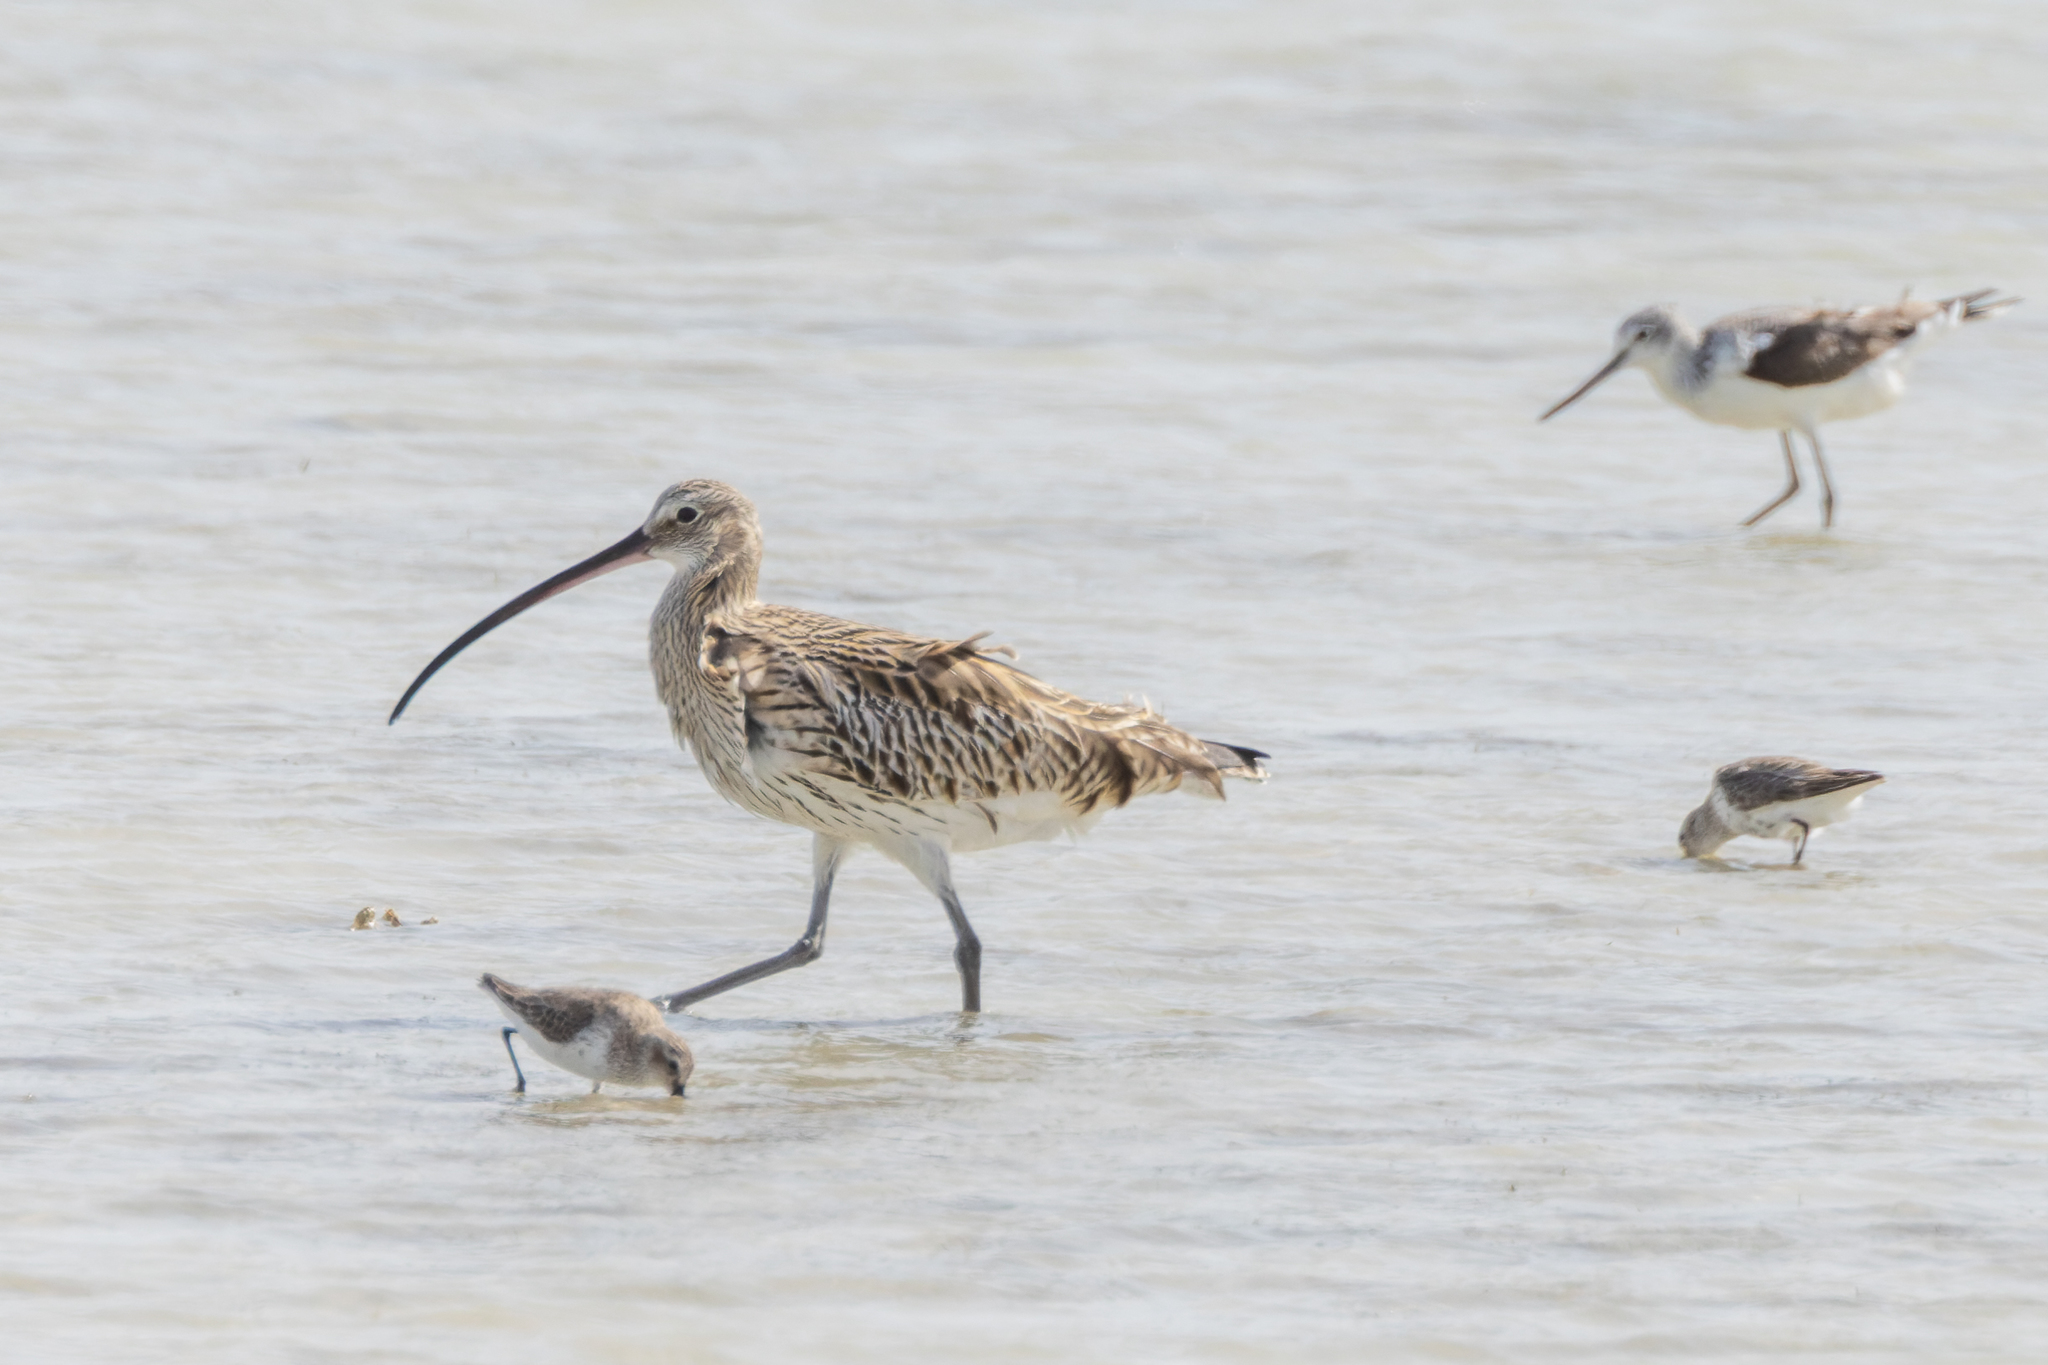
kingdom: Animalia
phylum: Chordata
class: Aves
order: Charadriiformes
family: Scolopacidae
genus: Numenius
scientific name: Numenius arquata
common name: Eurasian curlew
